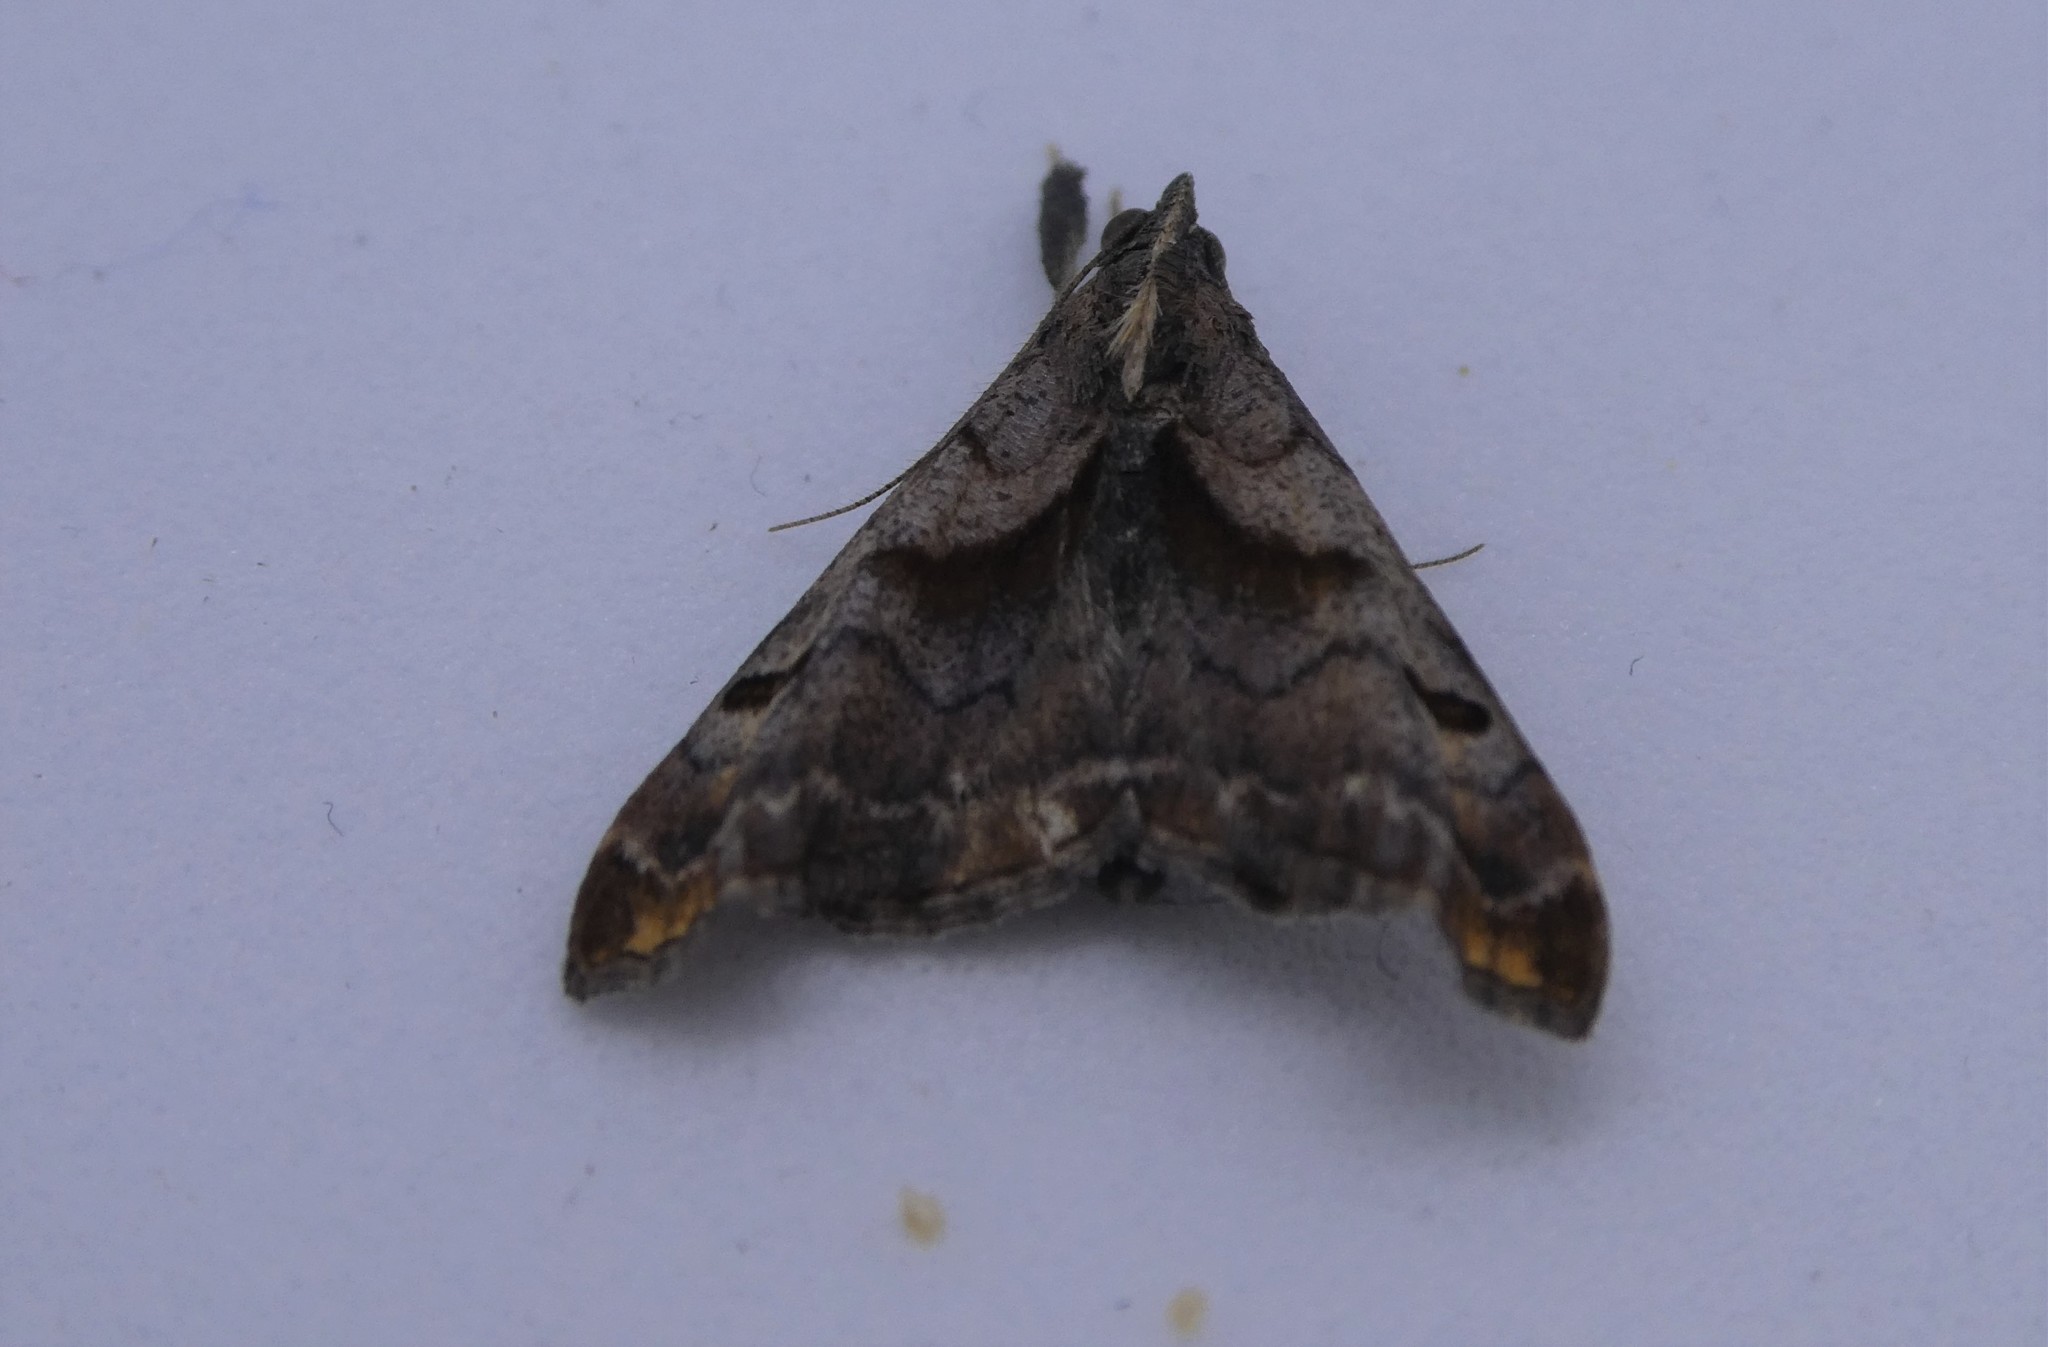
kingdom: Animalia
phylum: Arthropoda
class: Insecta
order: Lepidoptera
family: Erebidae
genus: Palthis
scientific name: Palthis angulalis
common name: Dark-spotted palthis moth
